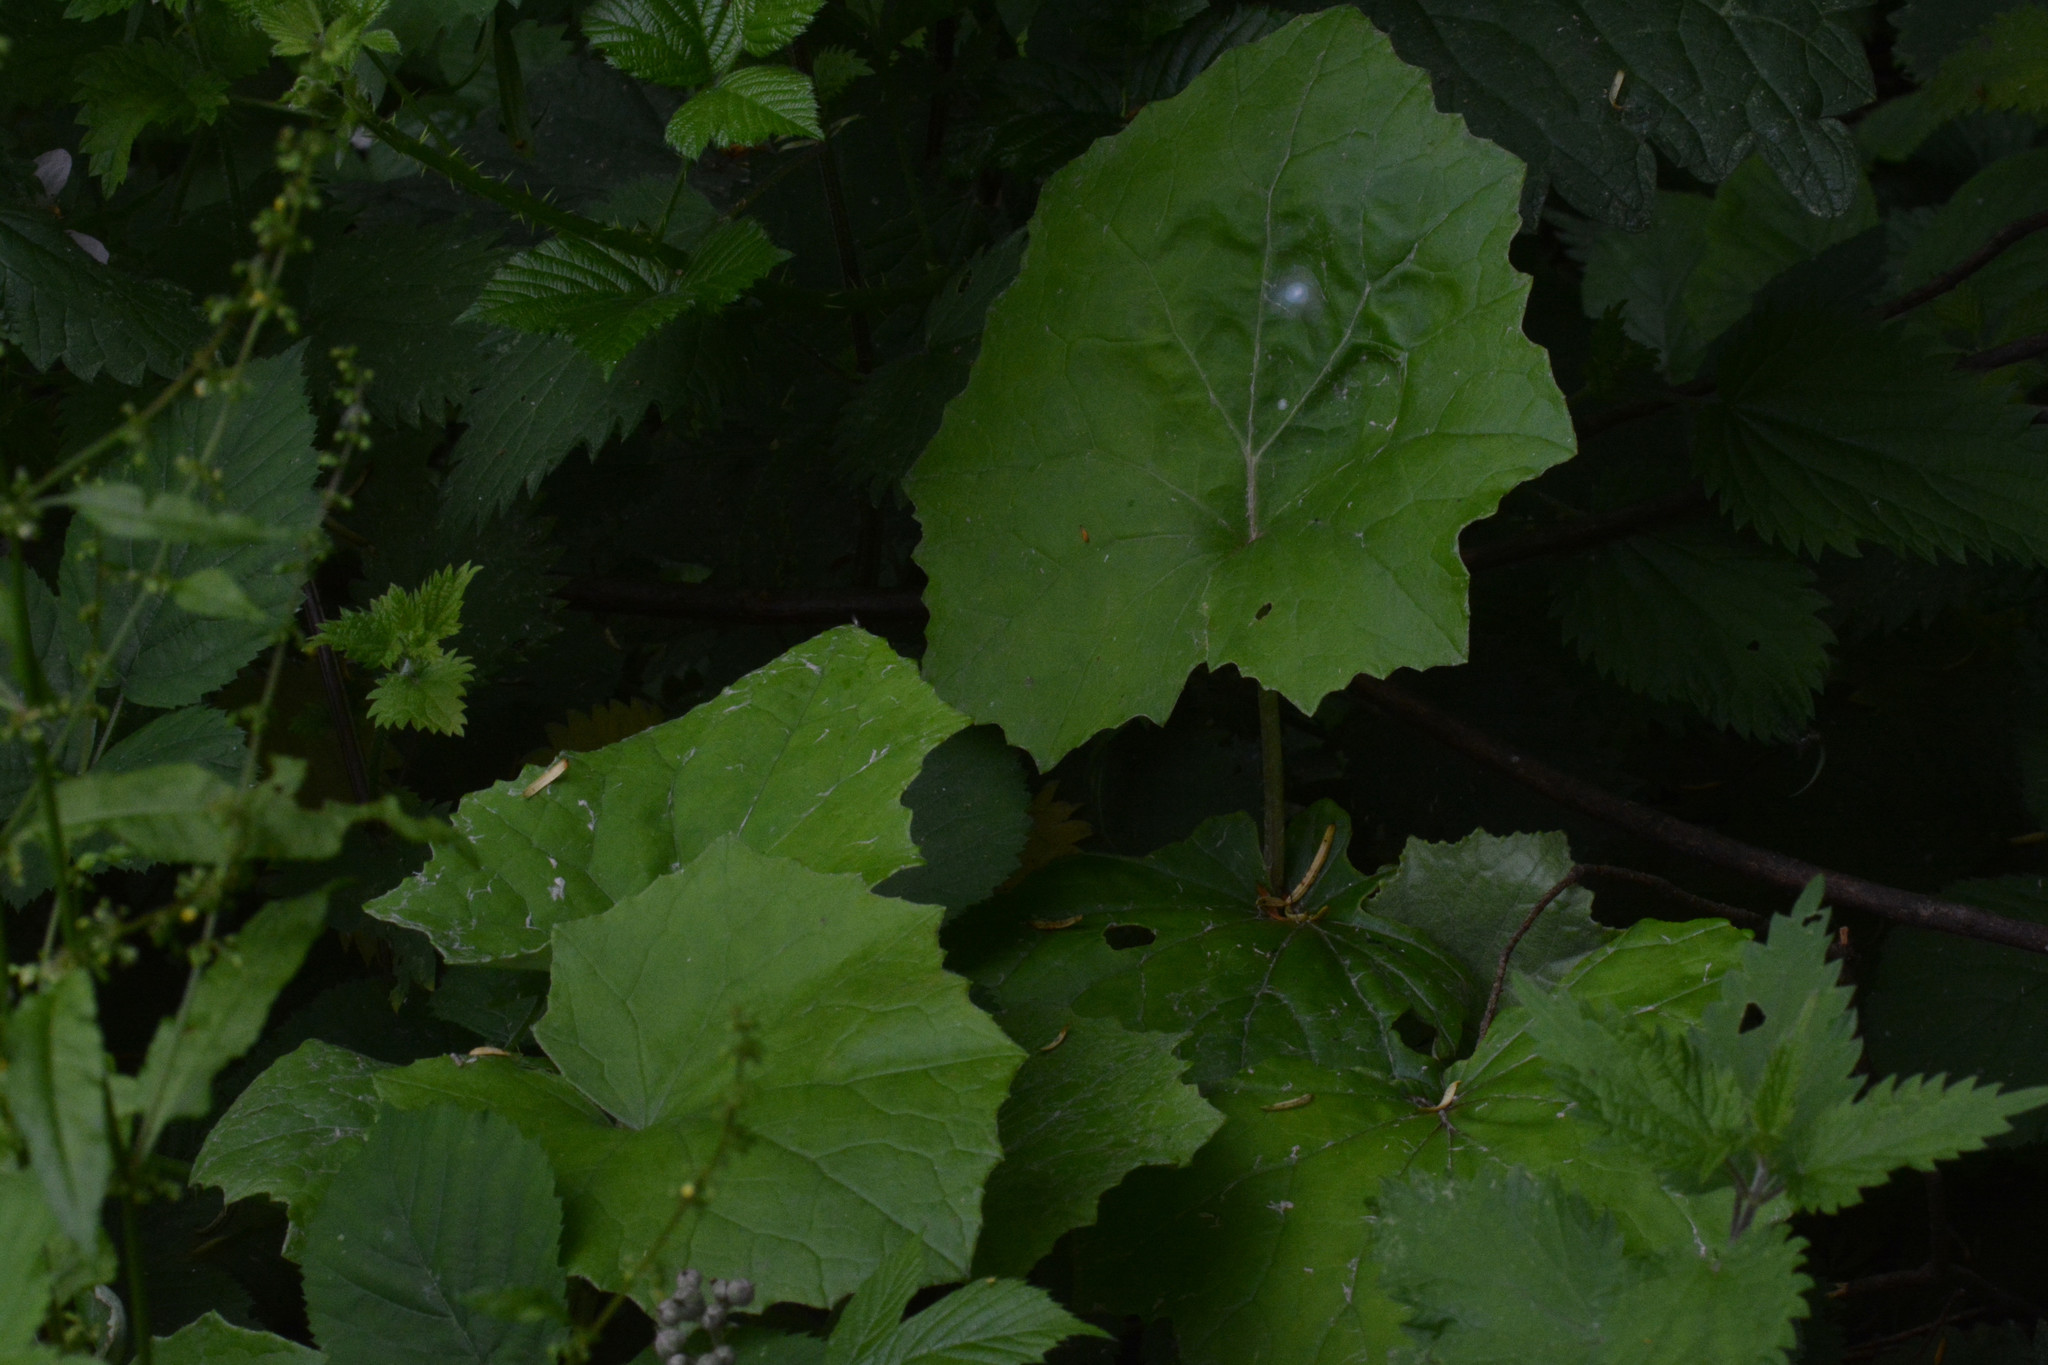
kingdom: Plantae
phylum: Tracheophyta
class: Magnoliopsida
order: Asterales
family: Asteraceae
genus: Tussilago
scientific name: Tussilago farfara
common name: Coltsfoot
